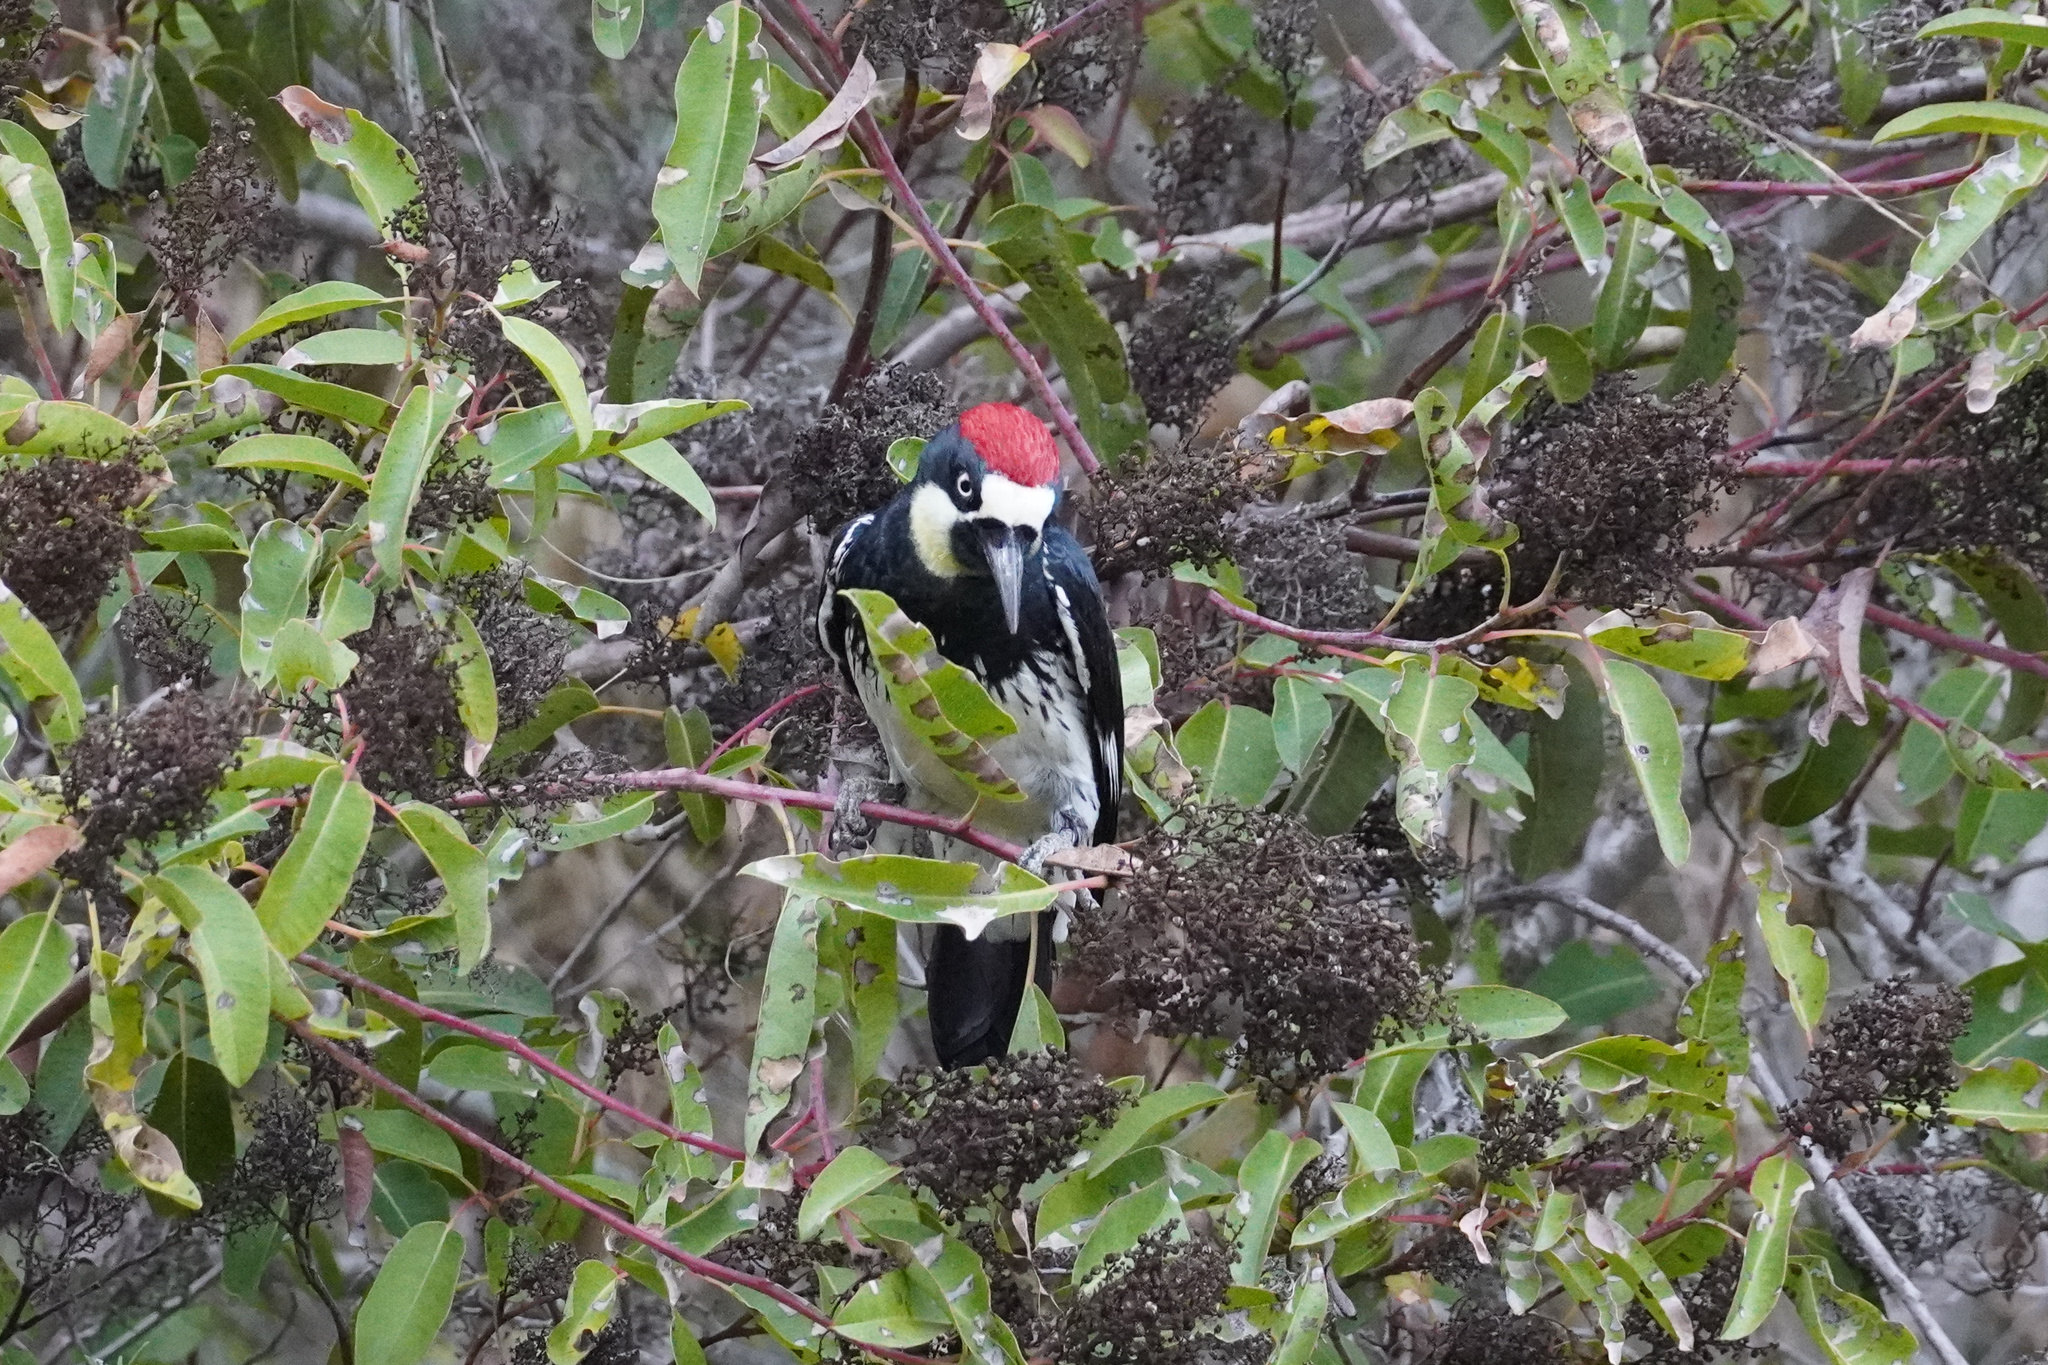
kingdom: Animalia
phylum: Chordata
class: Aves
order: Piciformes
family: Picidae
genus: Melanerpes
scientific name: Melanerpes formicivorus
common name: Acorn woodpecker
